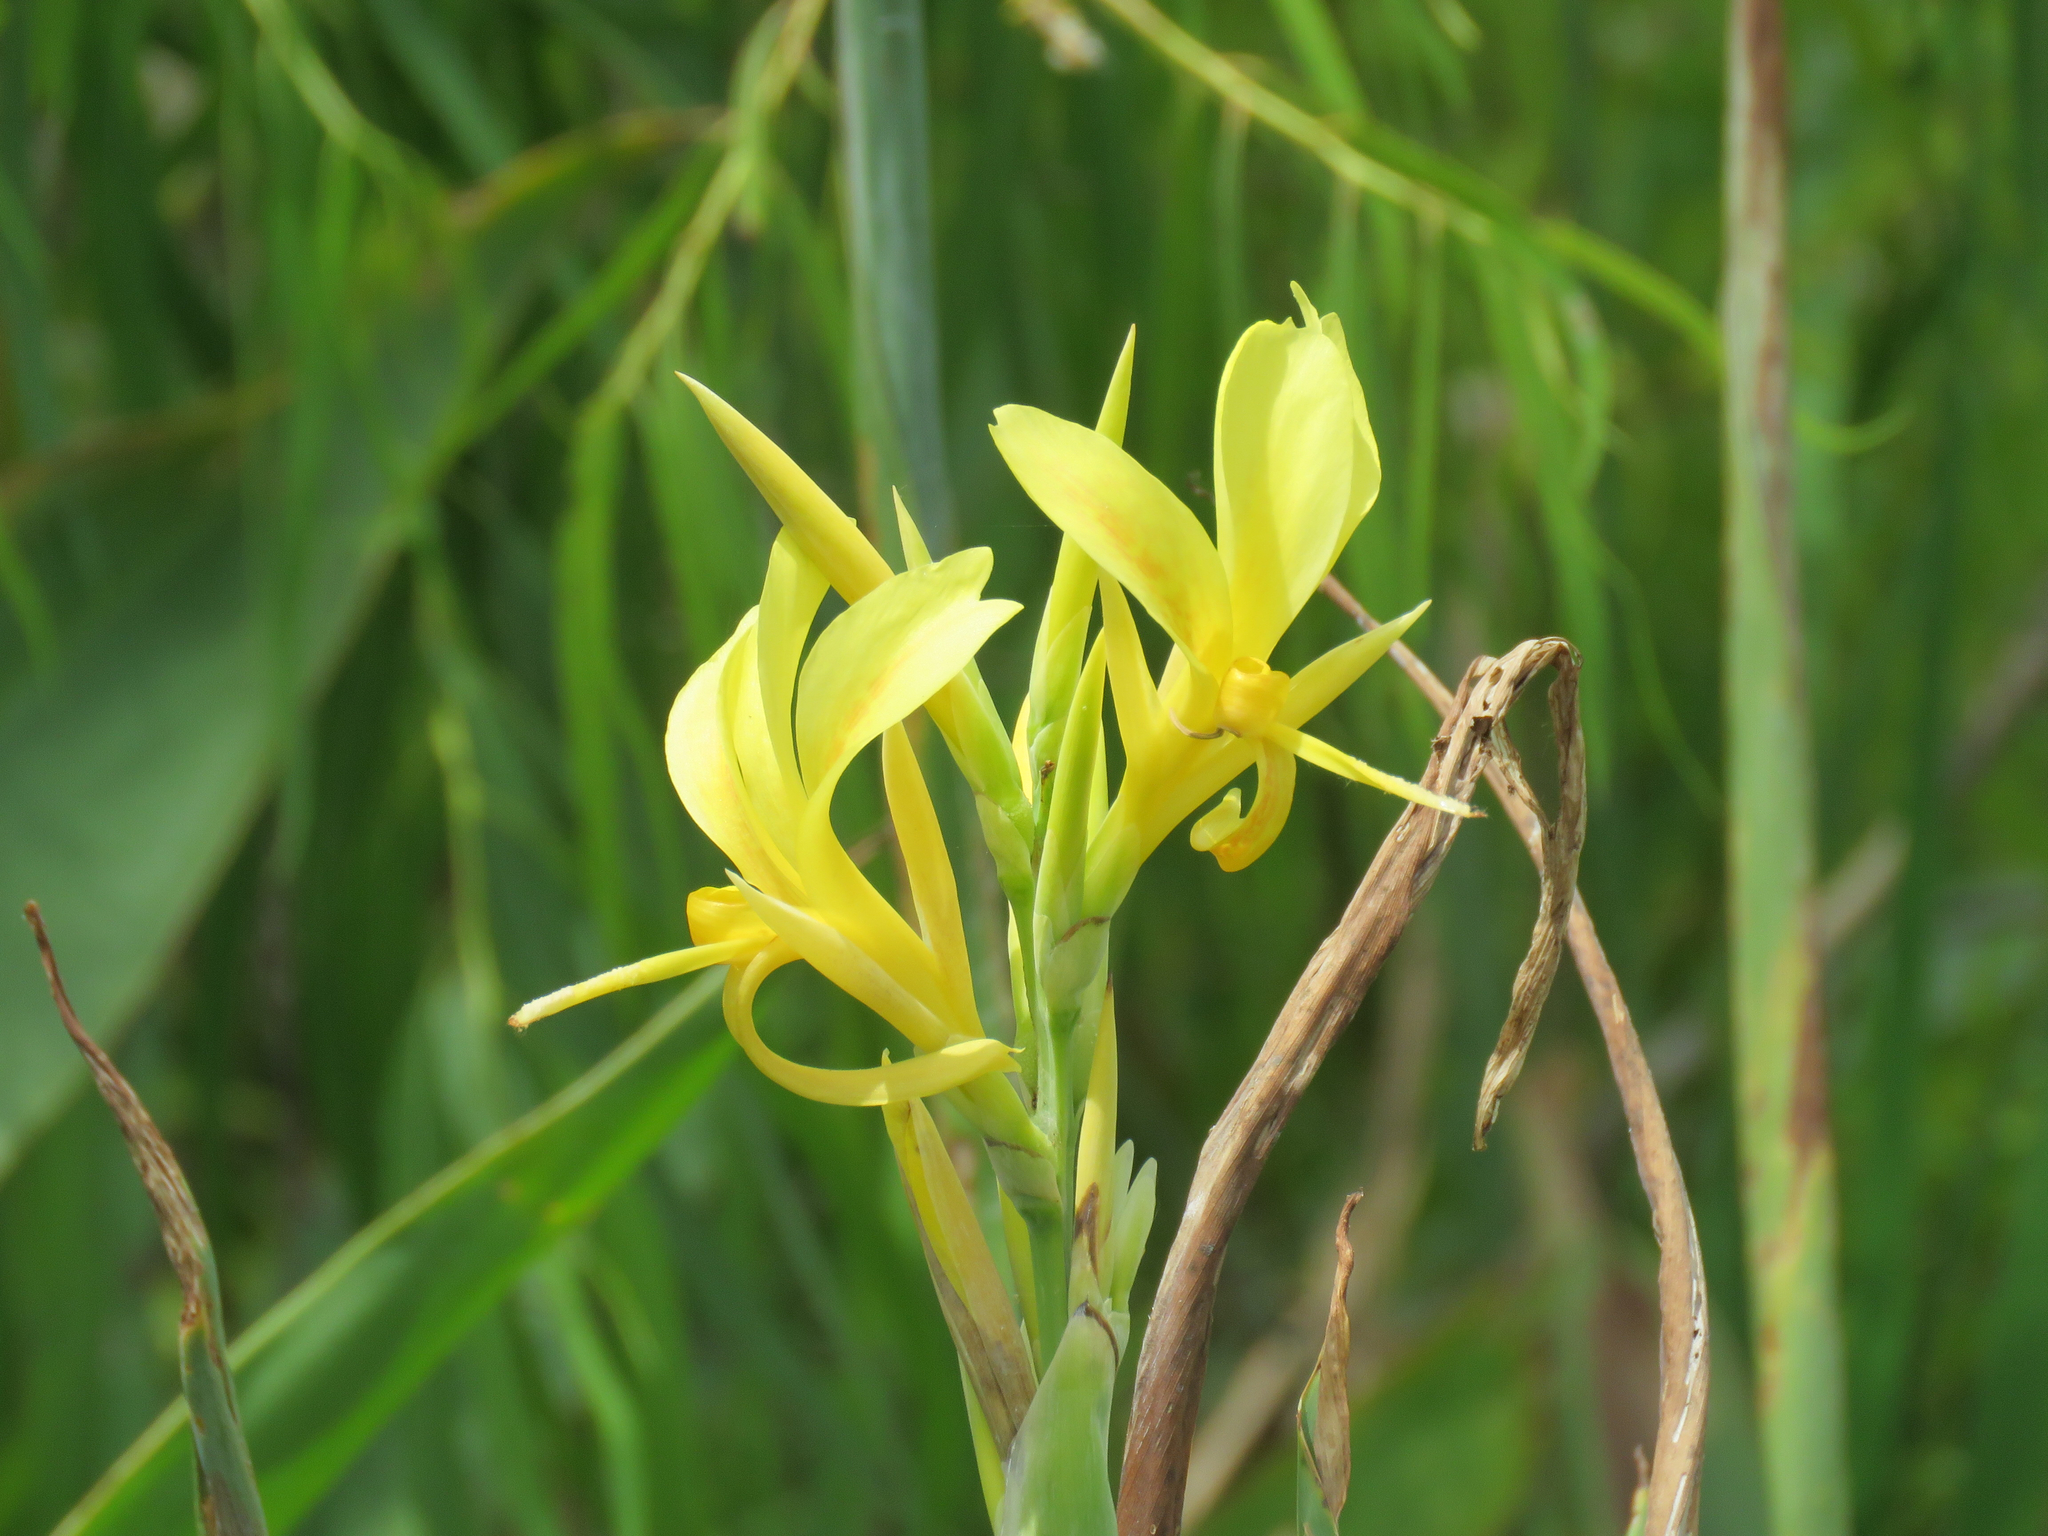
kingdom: Plantae
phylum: Tracheophyta
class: Liliopsida
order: Zingiberales
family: Cannaceae
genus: Canna
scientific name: Canna glauca
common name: Louisiana canna
